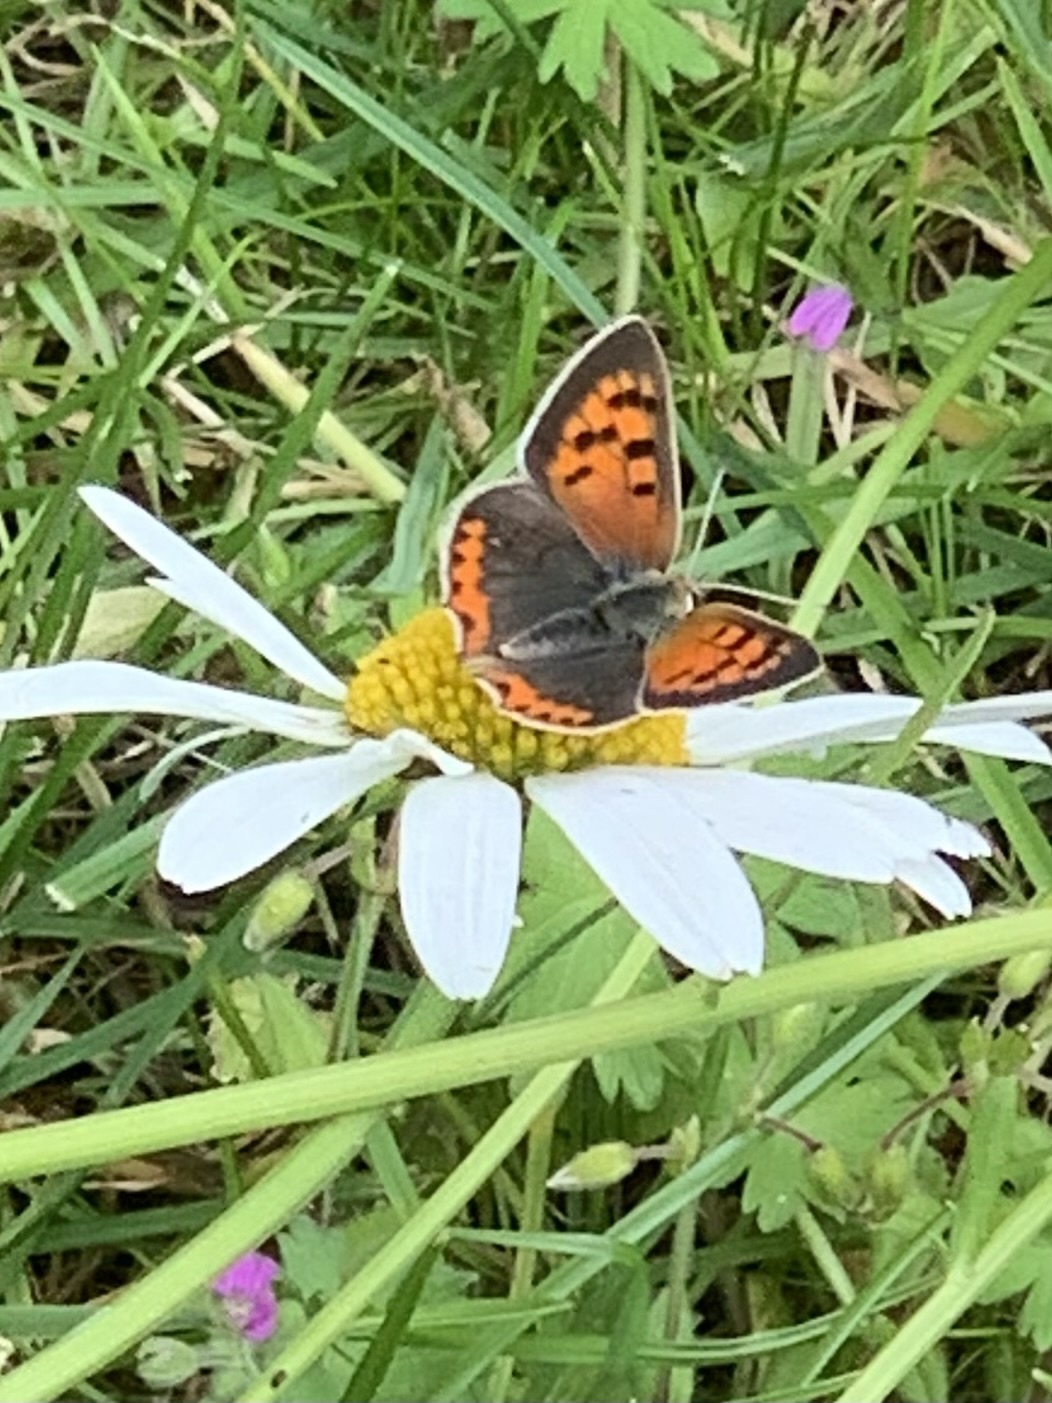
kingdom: Animalia
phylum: Arthropoda
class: Insecta
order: Lepidoptera
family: Lycaenidae
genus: Lycaena
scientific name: Lycaena phlaeas
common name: Small copper
